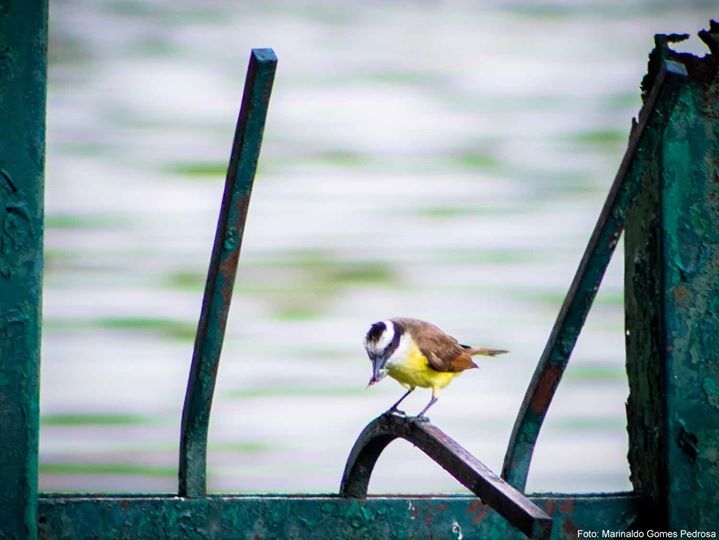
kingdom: Animalia
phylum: Chordata
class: Aves
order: Passeriformes
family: Tyrannidae
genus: Pitangus
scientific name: Pitangus sulphuratus
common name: Great kiskadee
